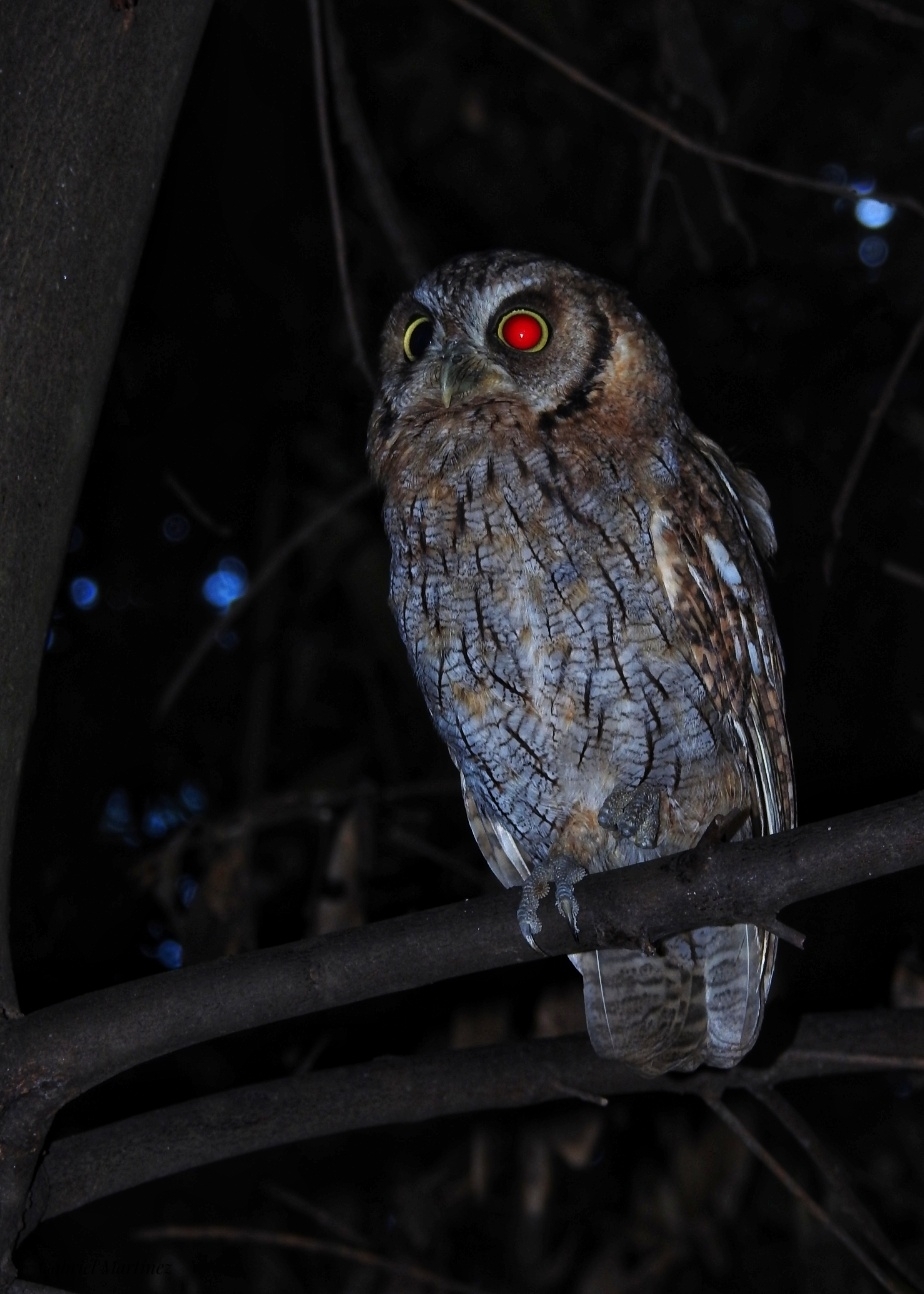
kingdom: Animalia
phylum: Chordata
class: Aves
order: Strigiformes
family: Strigidae
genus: Megascops
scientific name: Megascops choliba
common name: Tropical screech-owl
